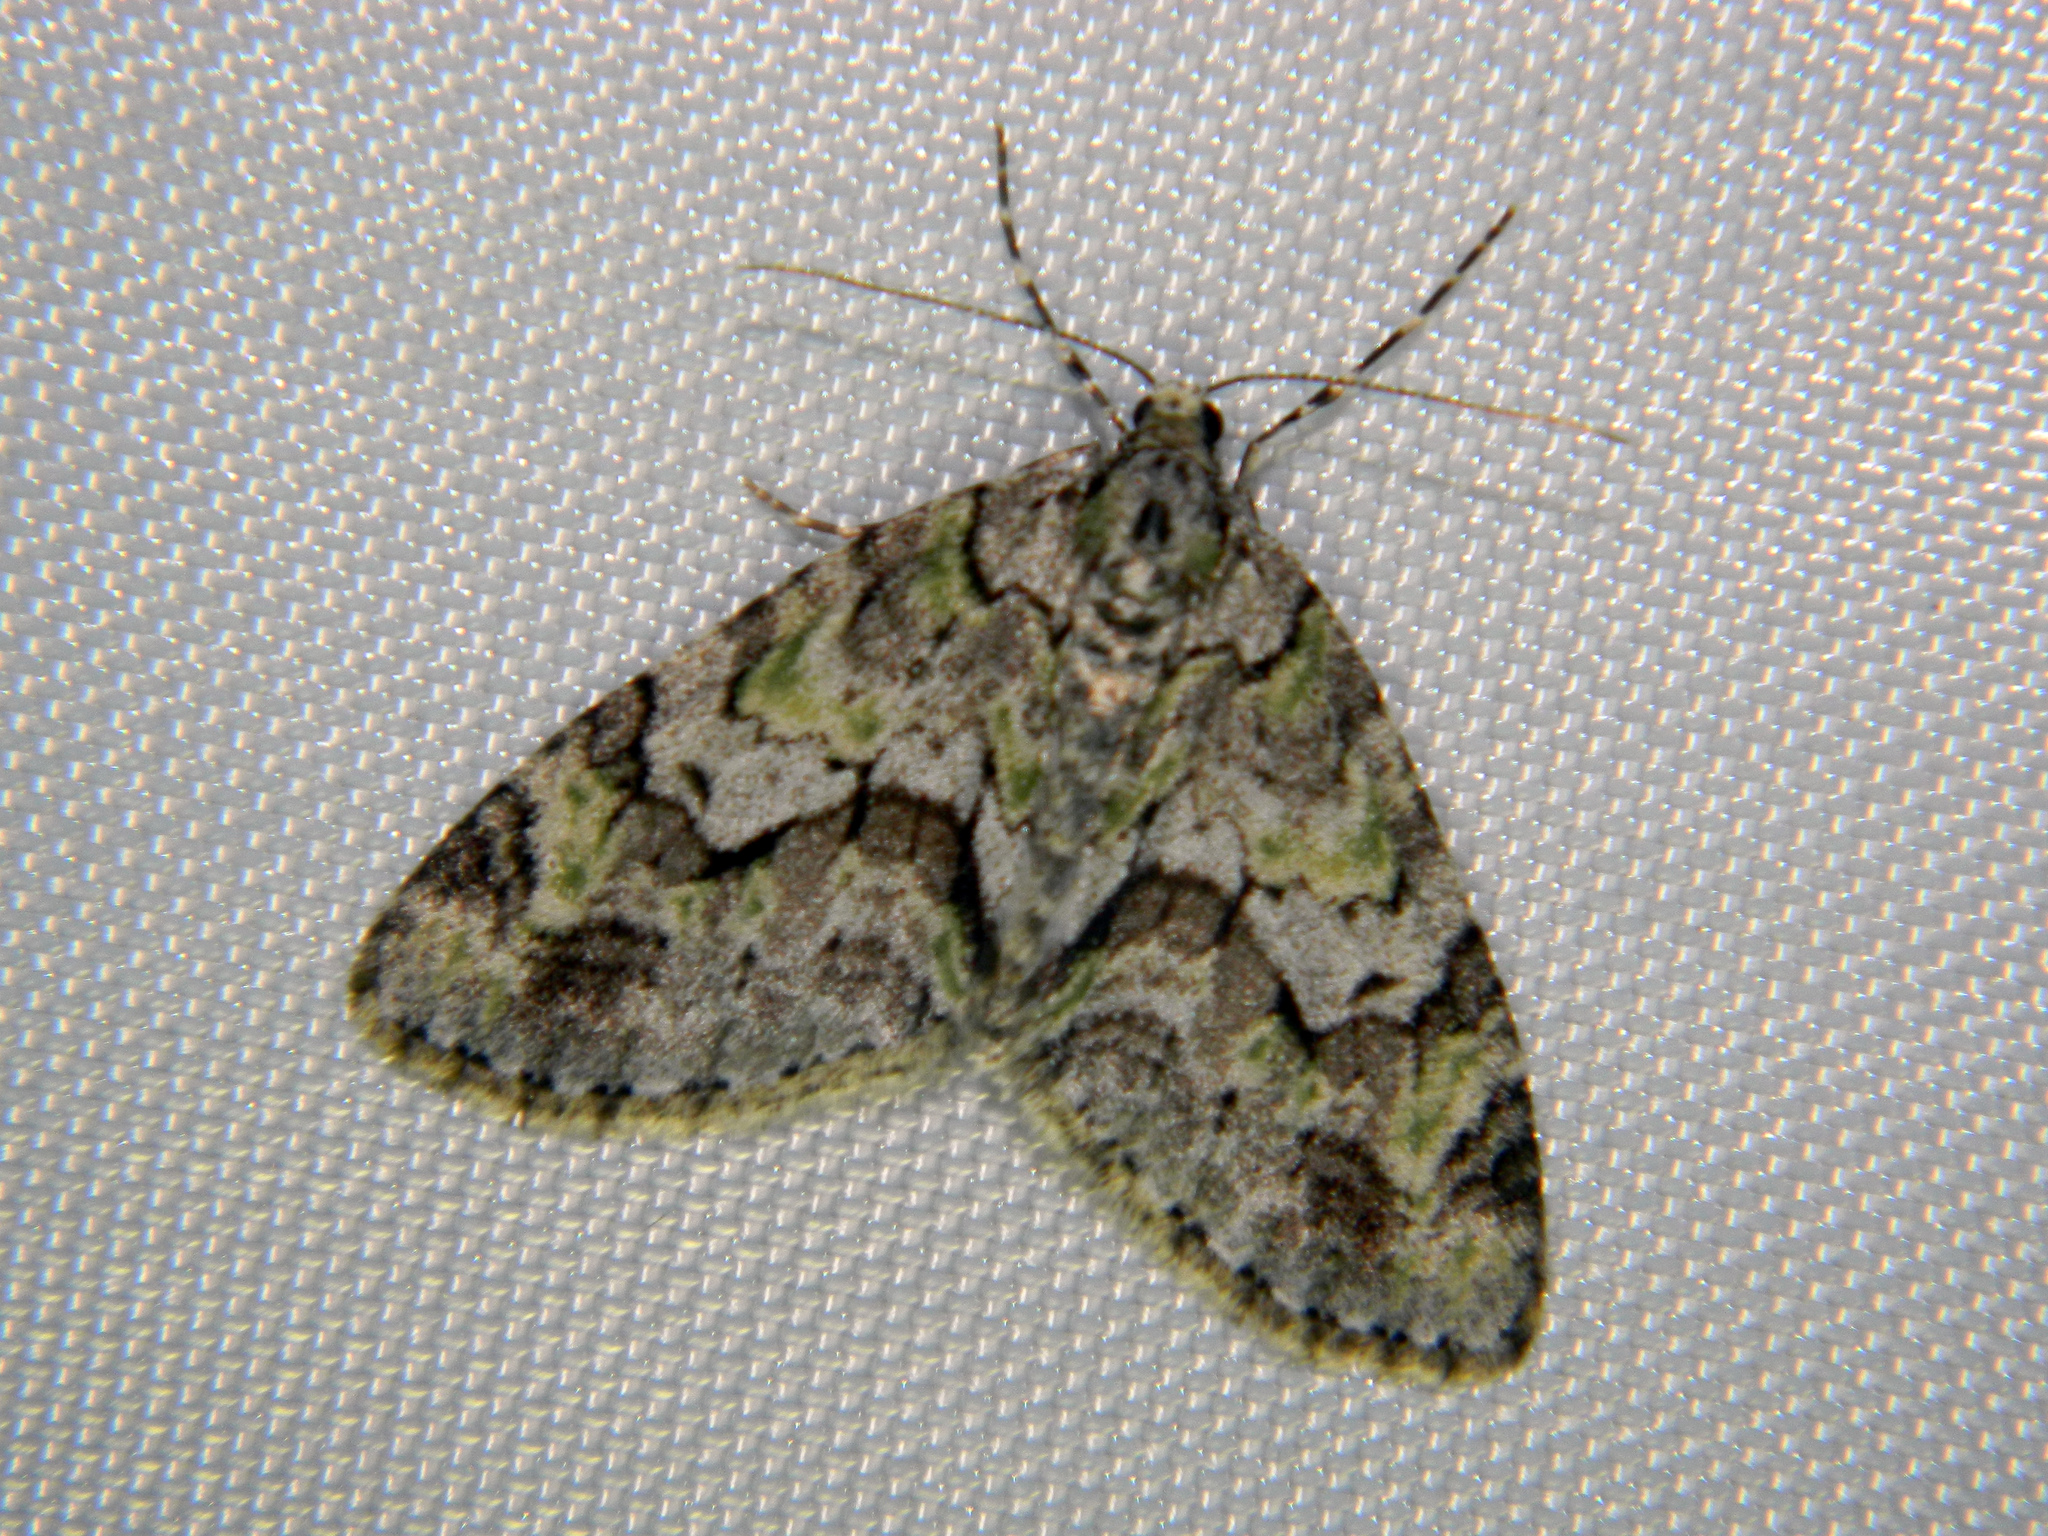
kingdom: Animalia
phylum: Arthropoda
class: Insecta
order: Lepidoptera
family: Geometridae
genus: Cladara
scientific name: Cladara limitaria
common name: Mottled gray carpet
